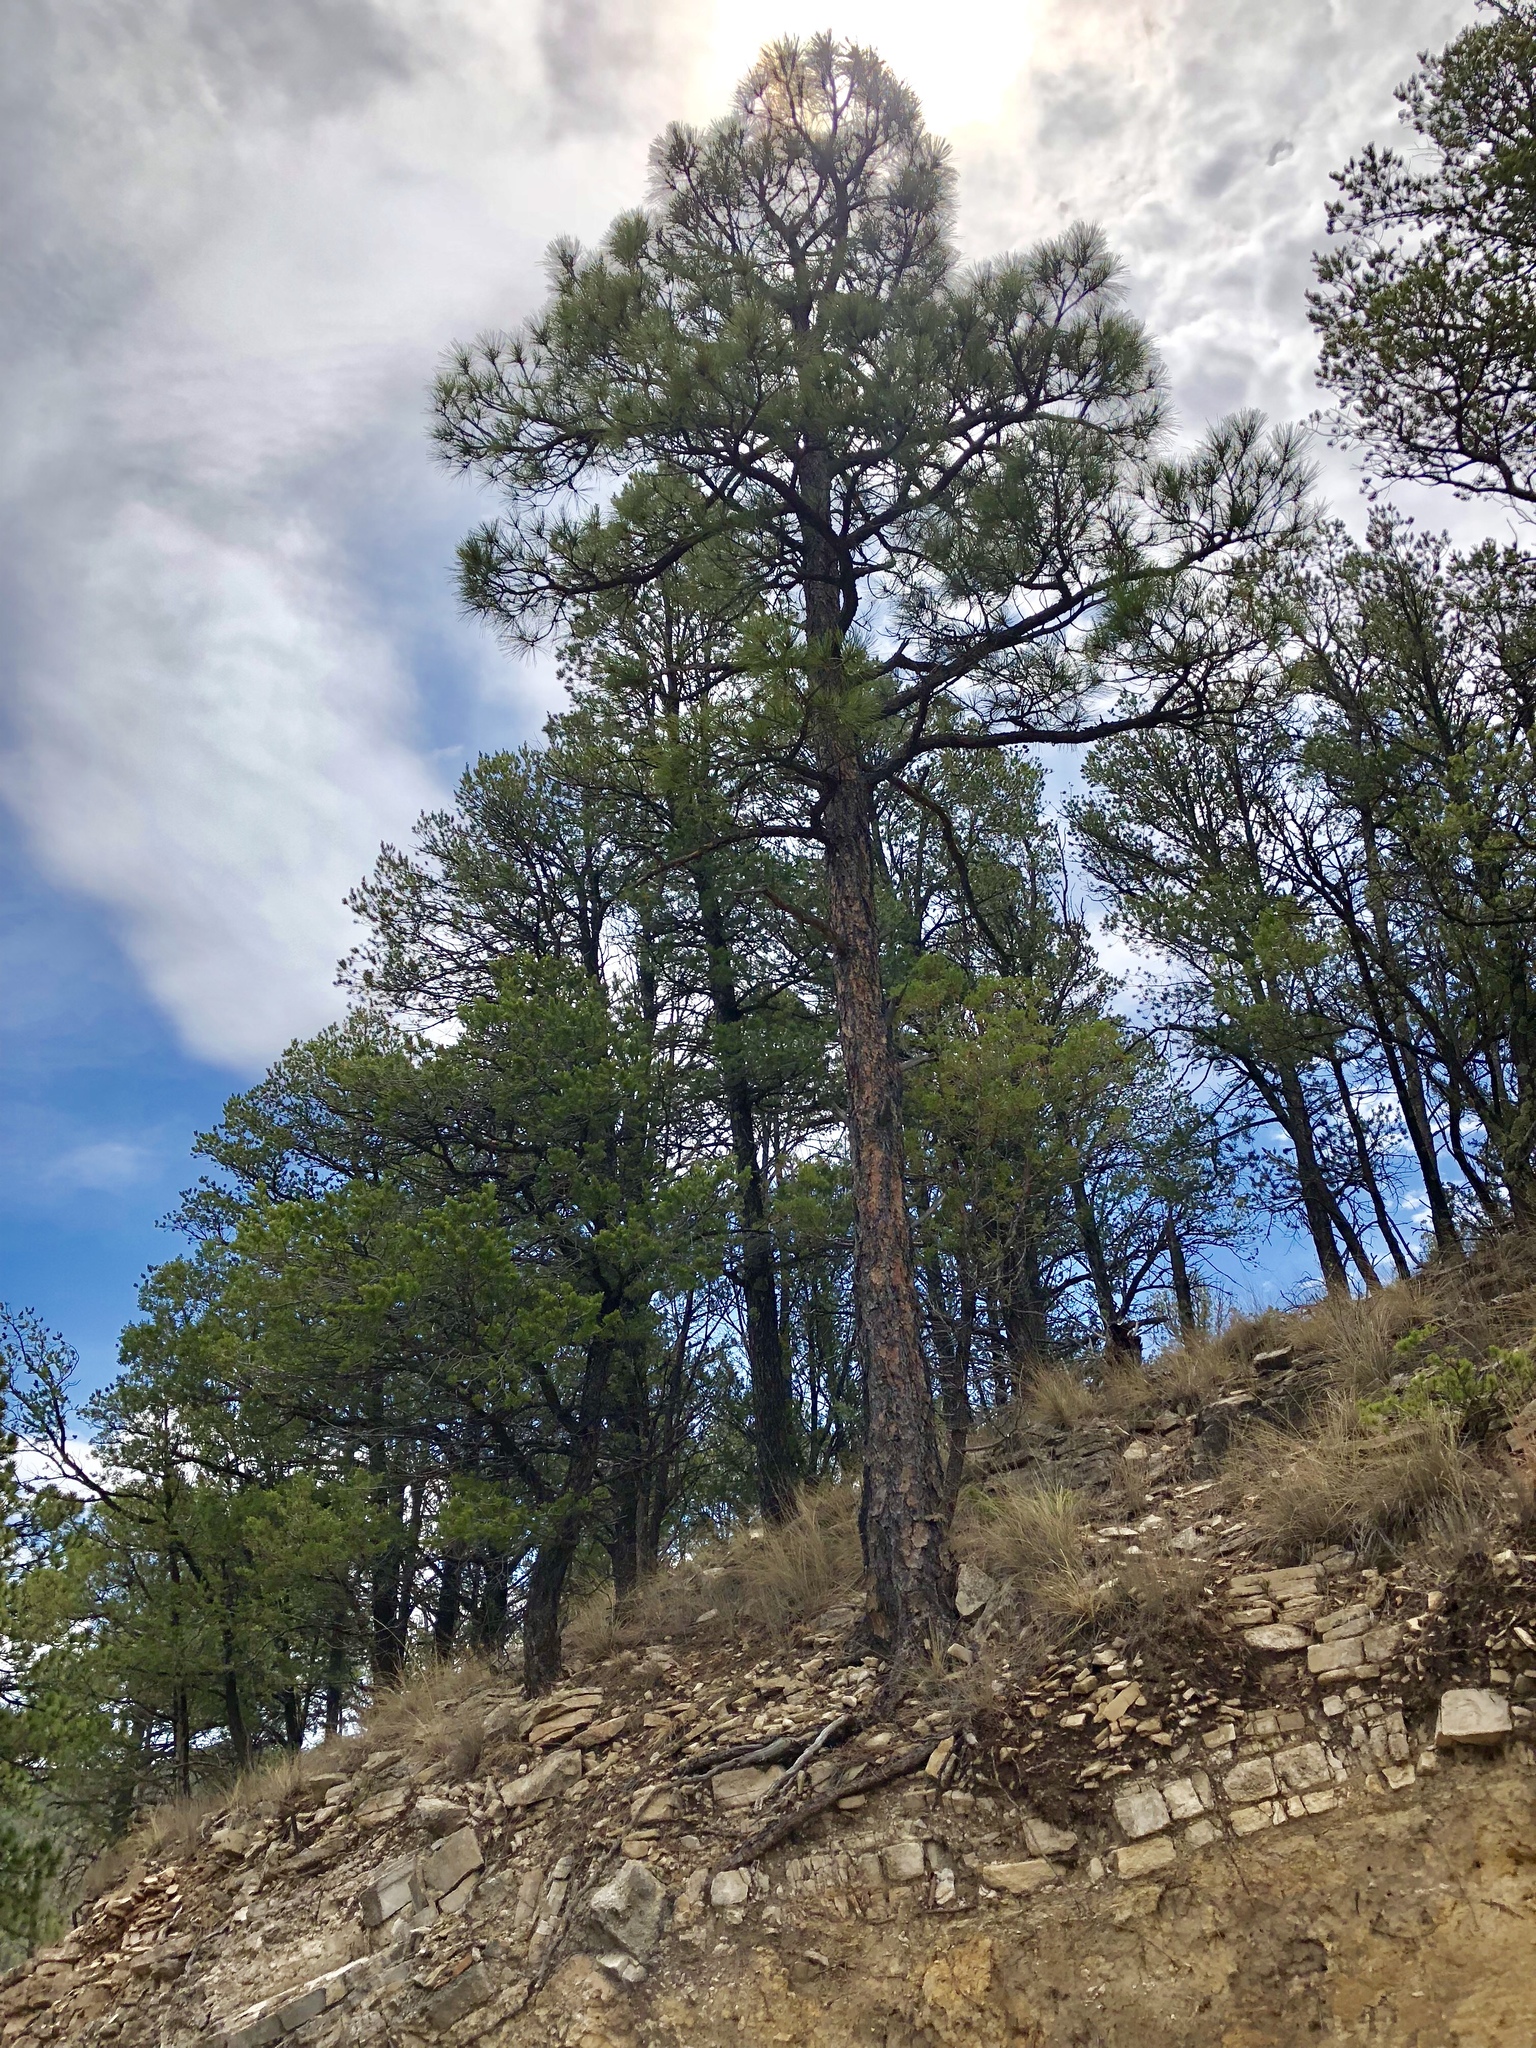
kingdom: Plantae
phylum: Tracheophyta
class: Pinopsida
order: Pinales
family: Pinaceae
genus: Pinus
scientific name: Pinus ponderosa
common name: Western yellow-pine
